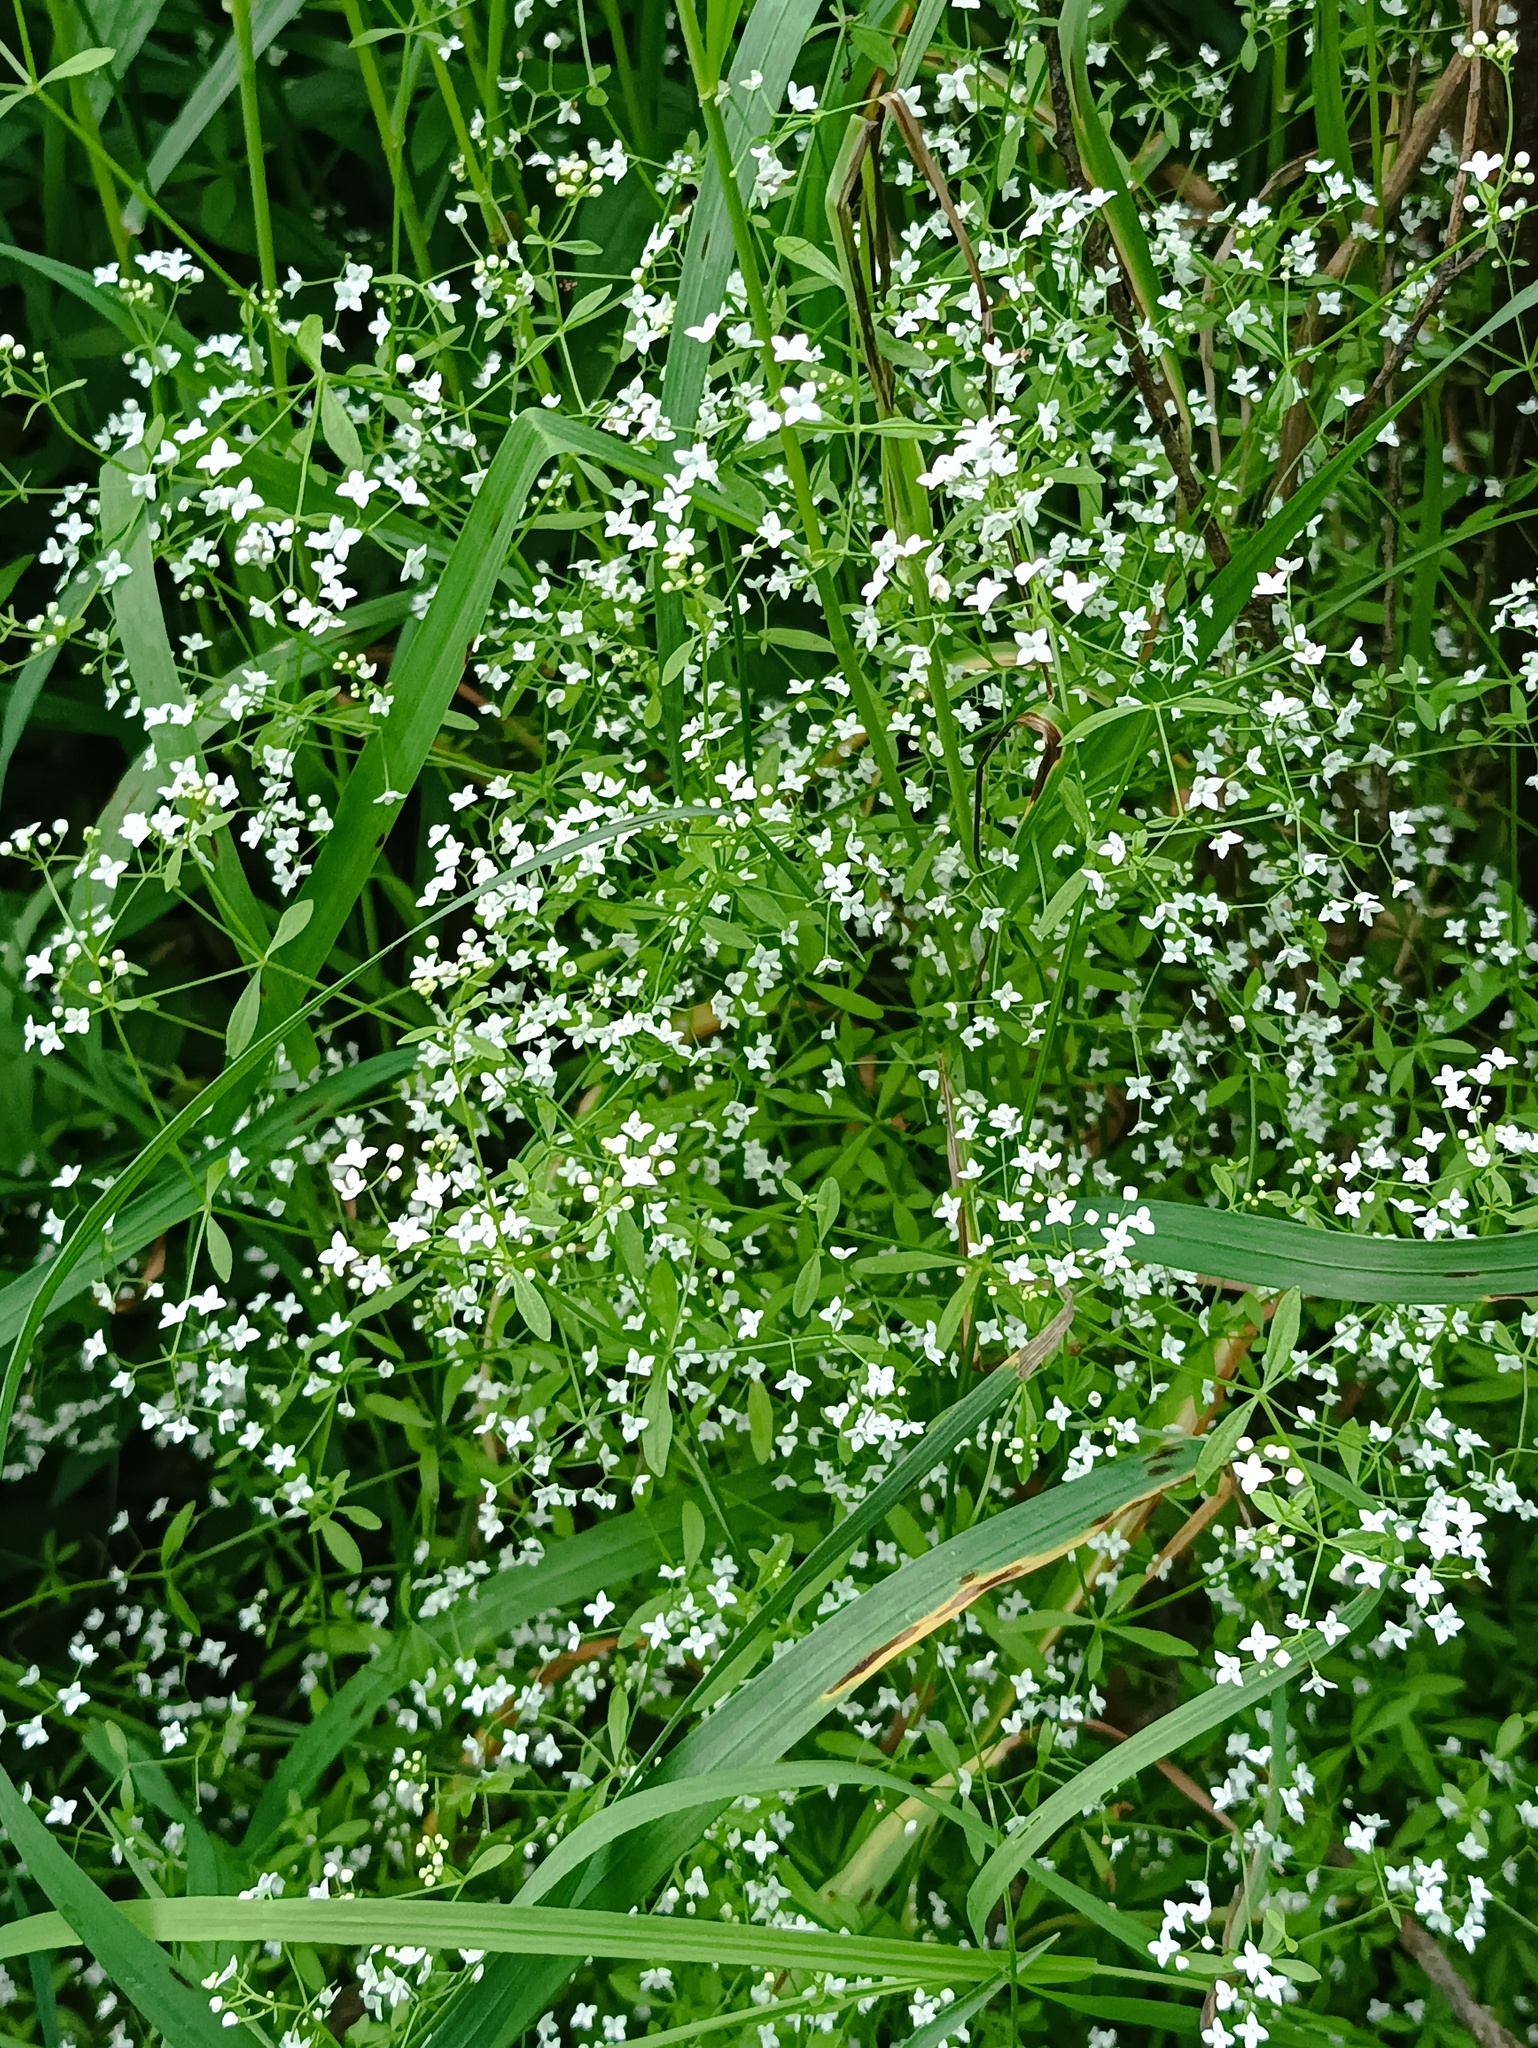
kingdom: Plantae
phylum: Tracheophyta
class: Magnoliopsida
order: Gentianales
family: Rubiaceae
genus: Galium
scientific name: Galium palustre
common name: Common marsh-bedstraw
